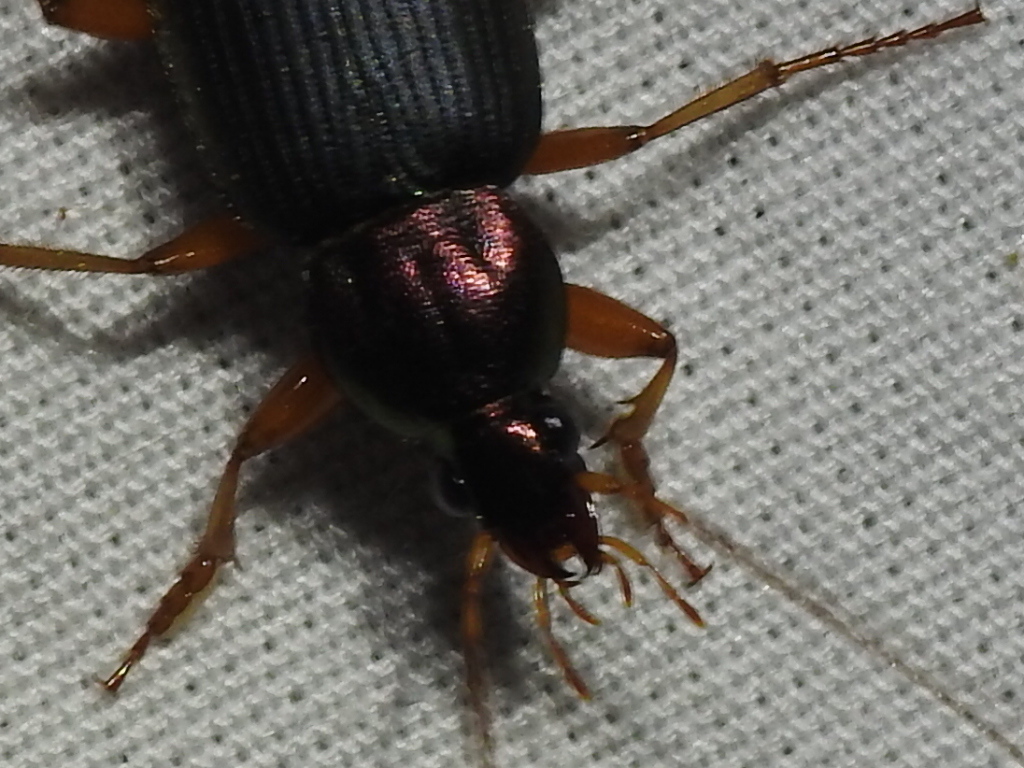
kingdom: Animalia
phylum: Arthropoda
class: Insecta
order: Coleoptera
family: Carabidae
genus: Chlaenius
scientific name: Chlaenius tricolor
